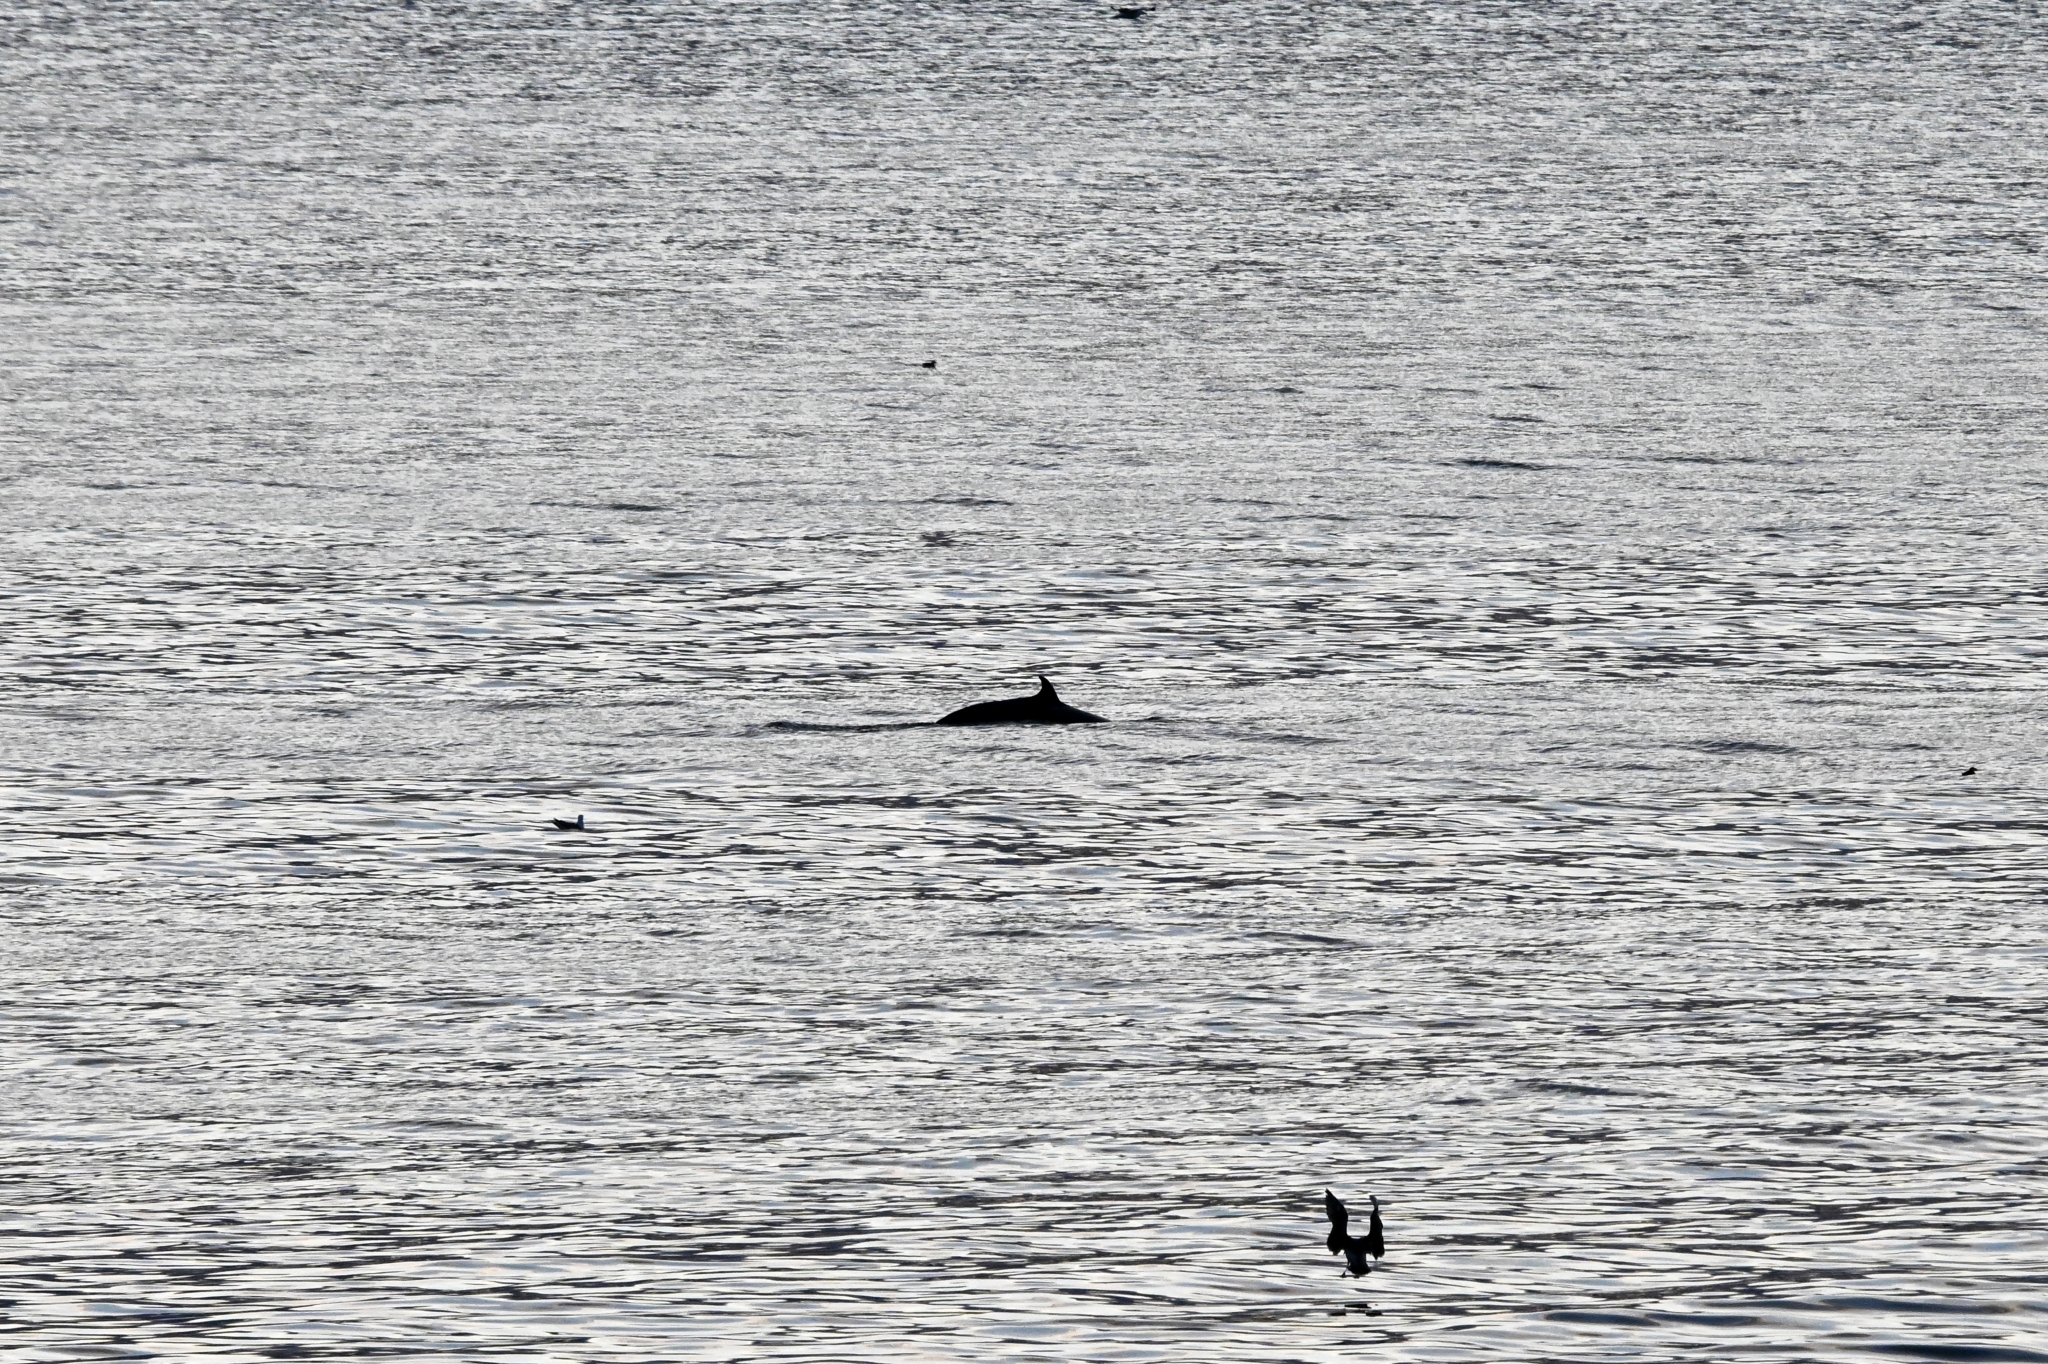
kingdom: Animalia
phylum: Chordata
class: Mammalia
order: Cetacea
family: Balaenopteridae
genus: Balaenoptera
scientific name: Balaenoptera acutorostrata
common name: Common minke whale
